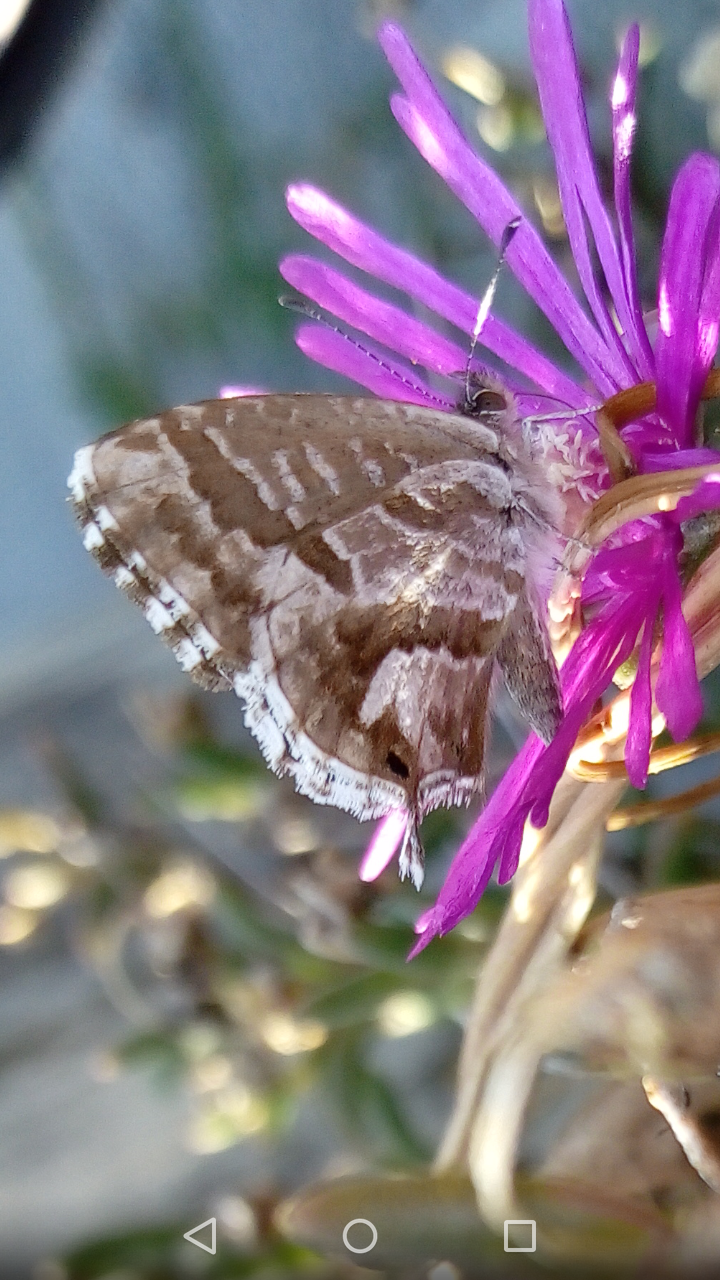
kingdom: Animalia
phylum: Arthropoda
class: Insecta
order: Lepidoptera
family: Lycaenidae
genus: Cacyreus
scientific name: Cacyreus marshalli
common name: Geranium bronze
